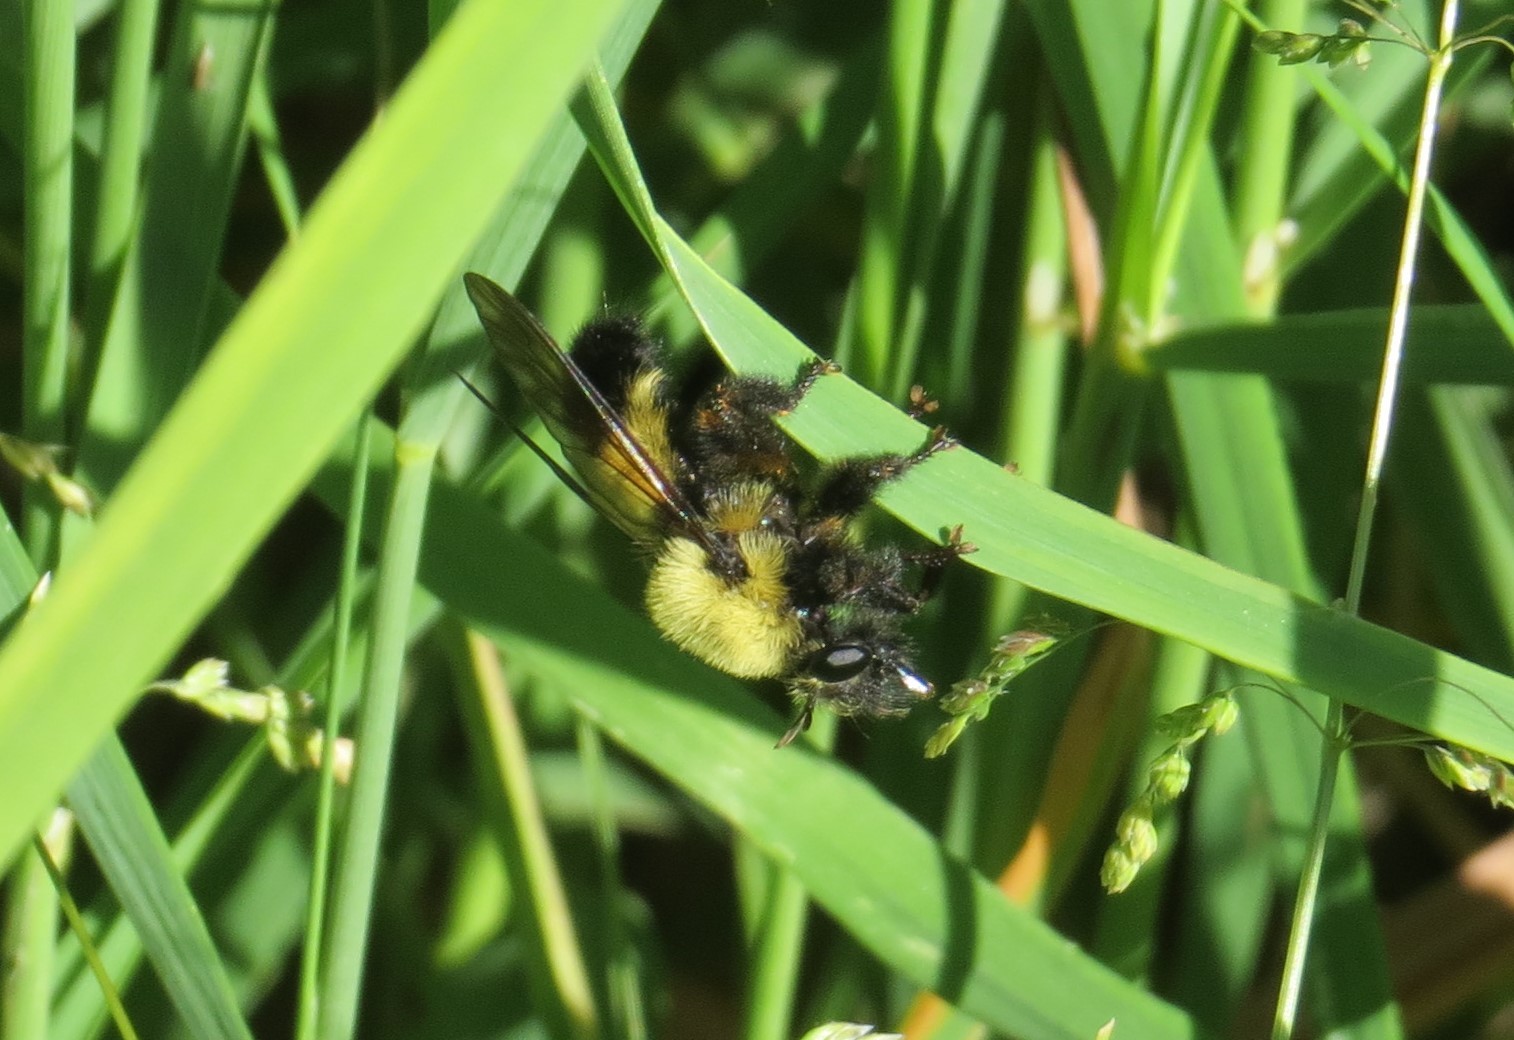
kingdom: Animalia
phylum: Arthropoda
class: Insecta
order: Diptera
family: Asilidae
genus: Laphria
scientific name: Laphria thoracica
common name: Bumble bee mimic robber fly
